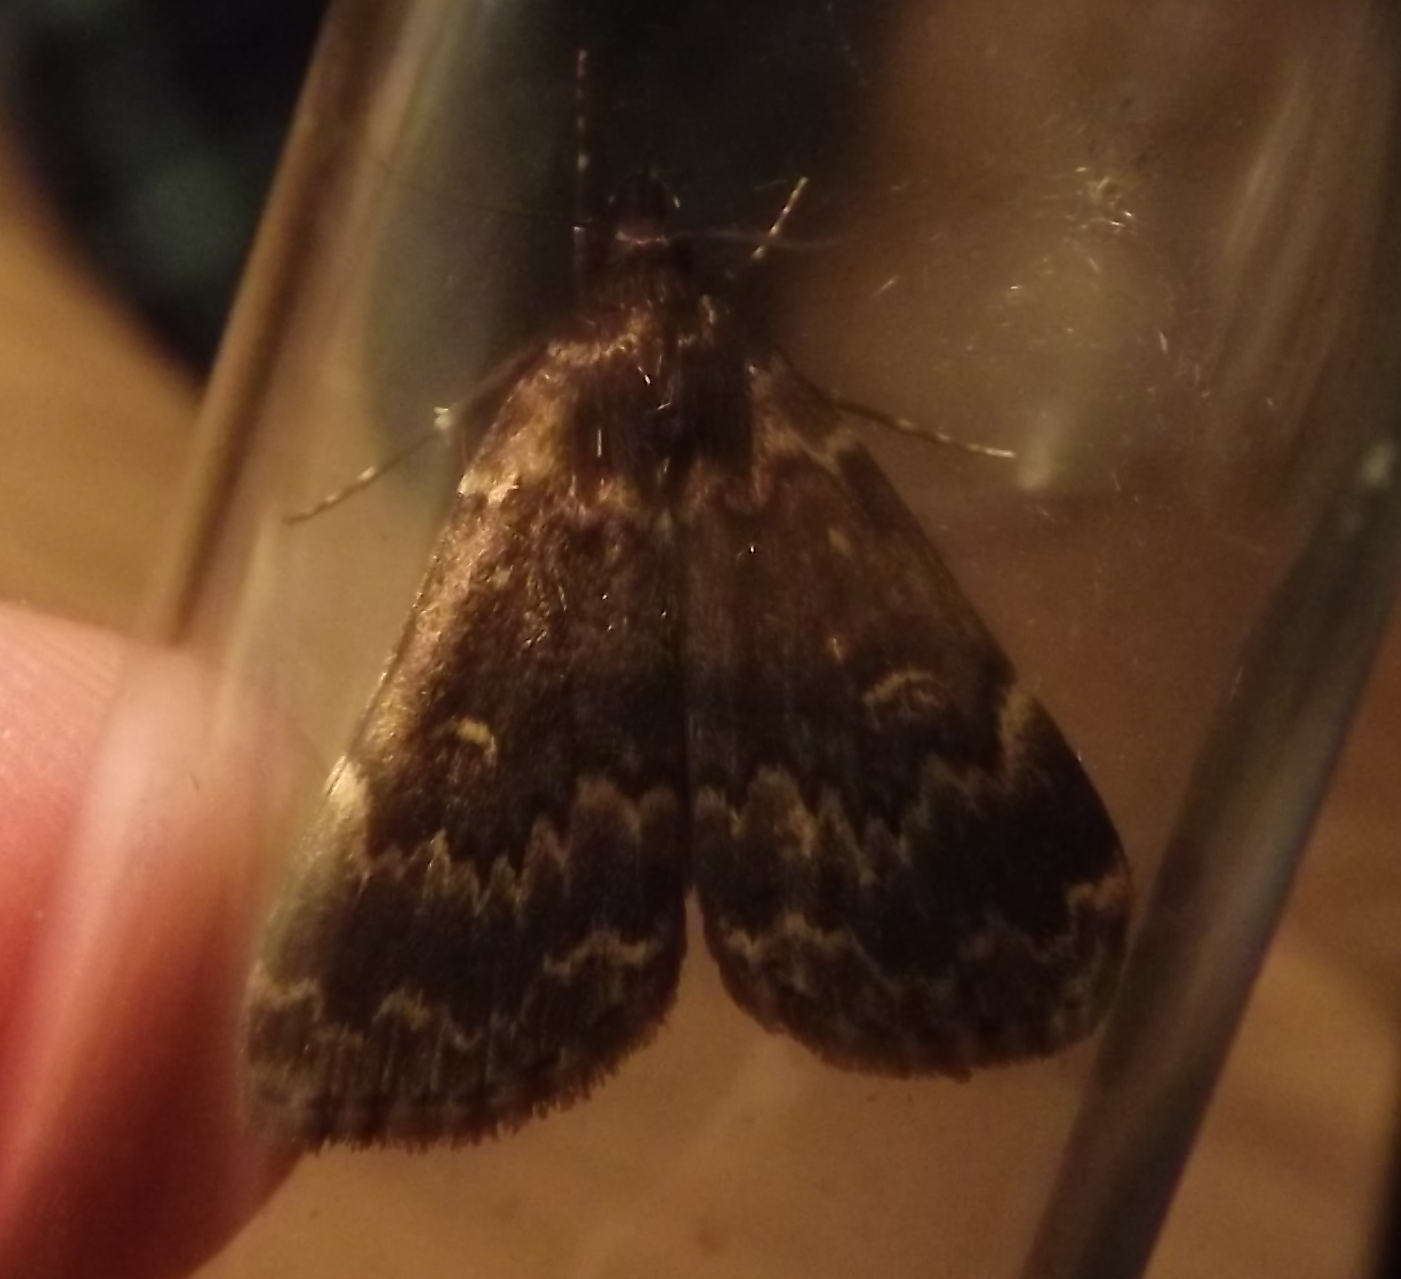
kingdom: Animalia
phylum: Arthropoda
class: Insecta
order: Lepidoptera
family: Erebidae
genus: Idia
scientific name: Idia lubricalis
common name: Twin-striped tabby
